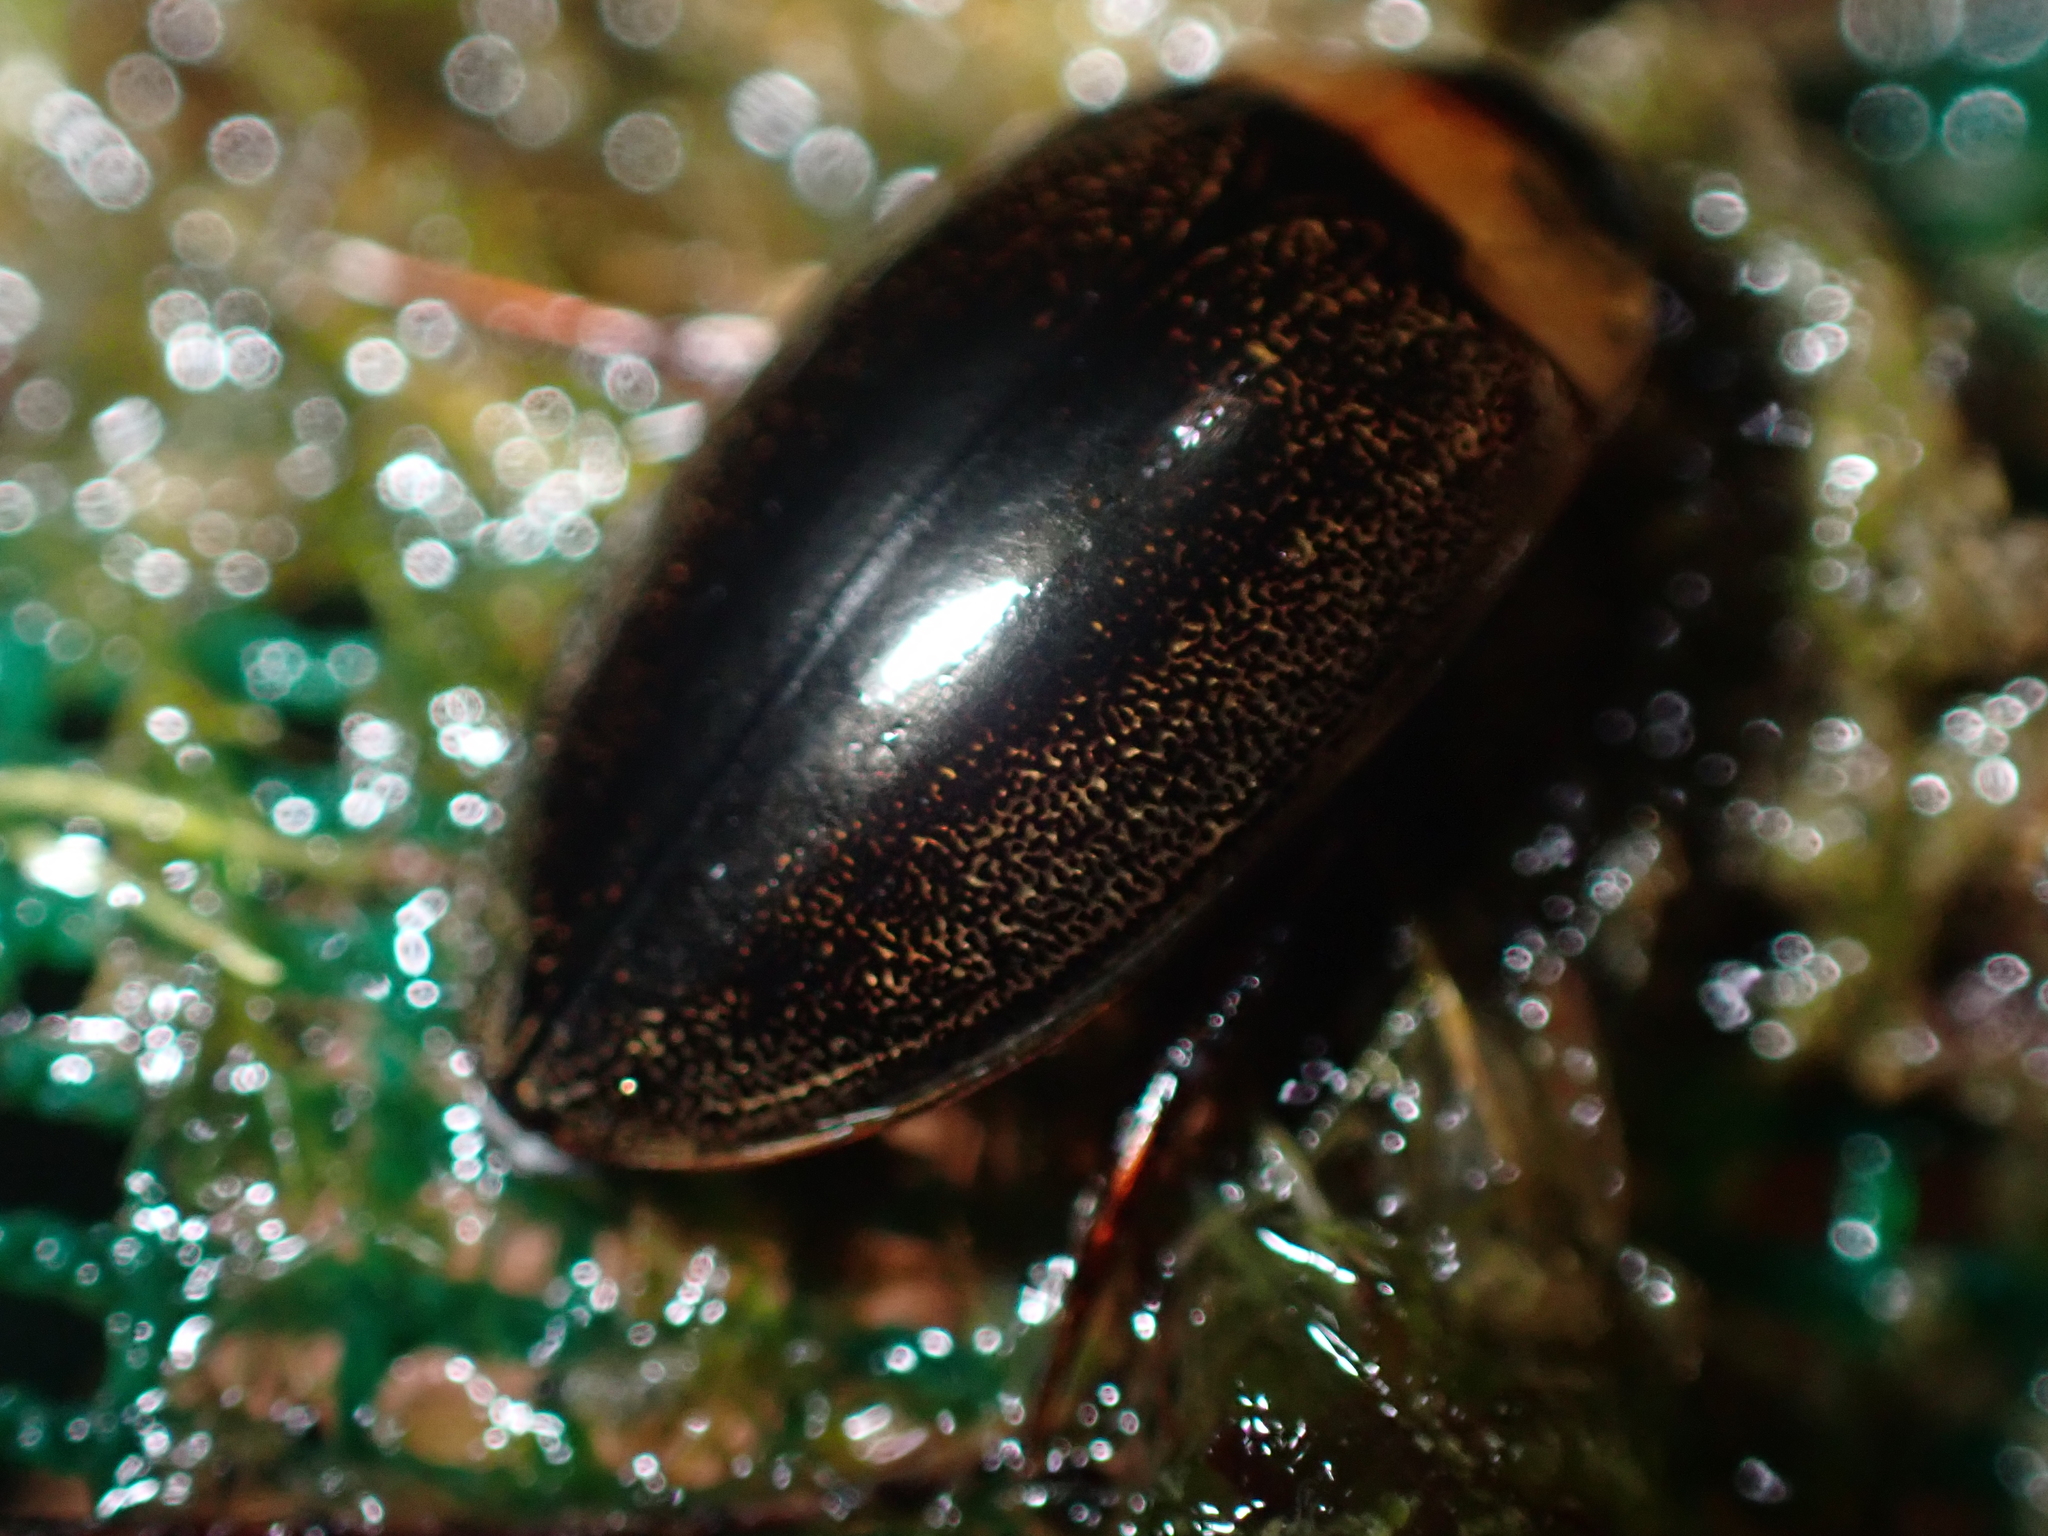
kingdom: Animalia
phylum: Arthropoda
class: Insecta
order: Coleoptera
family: Dytiscidae
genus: Hydaticus
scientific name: Hydaticus leander
